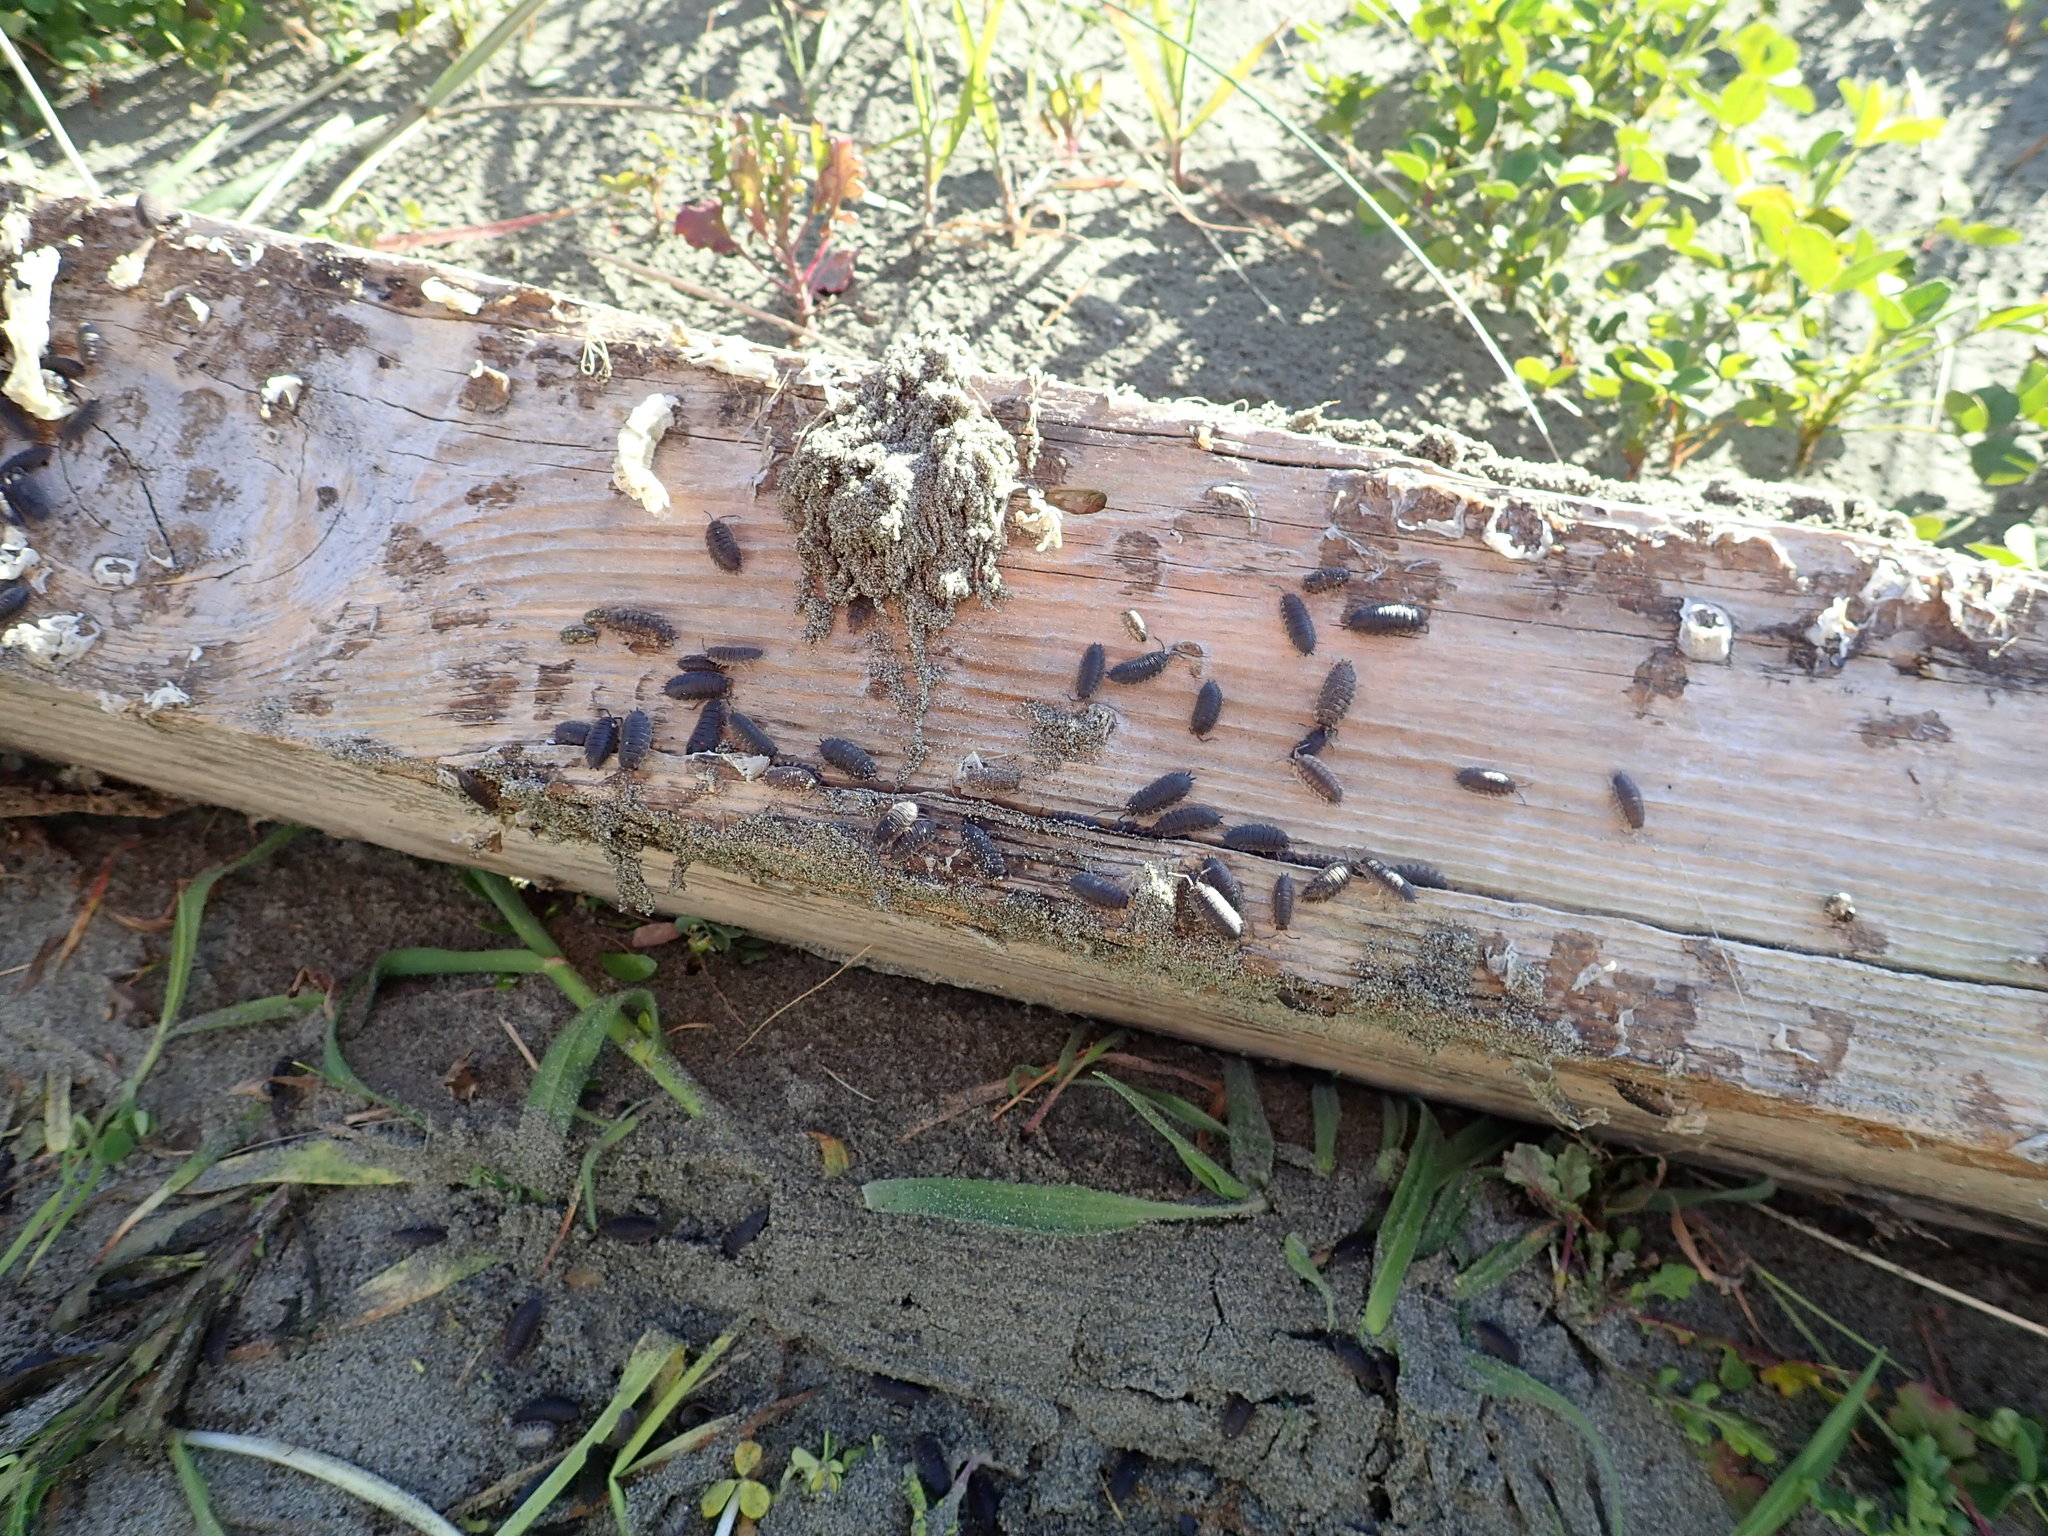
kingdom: Animalia
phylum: Arthropoda
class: Malacostraca
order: Isopoda
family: Porcellionidae
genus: Porcellio
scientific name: Porcellio scaber
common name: Common rough woodlouse
